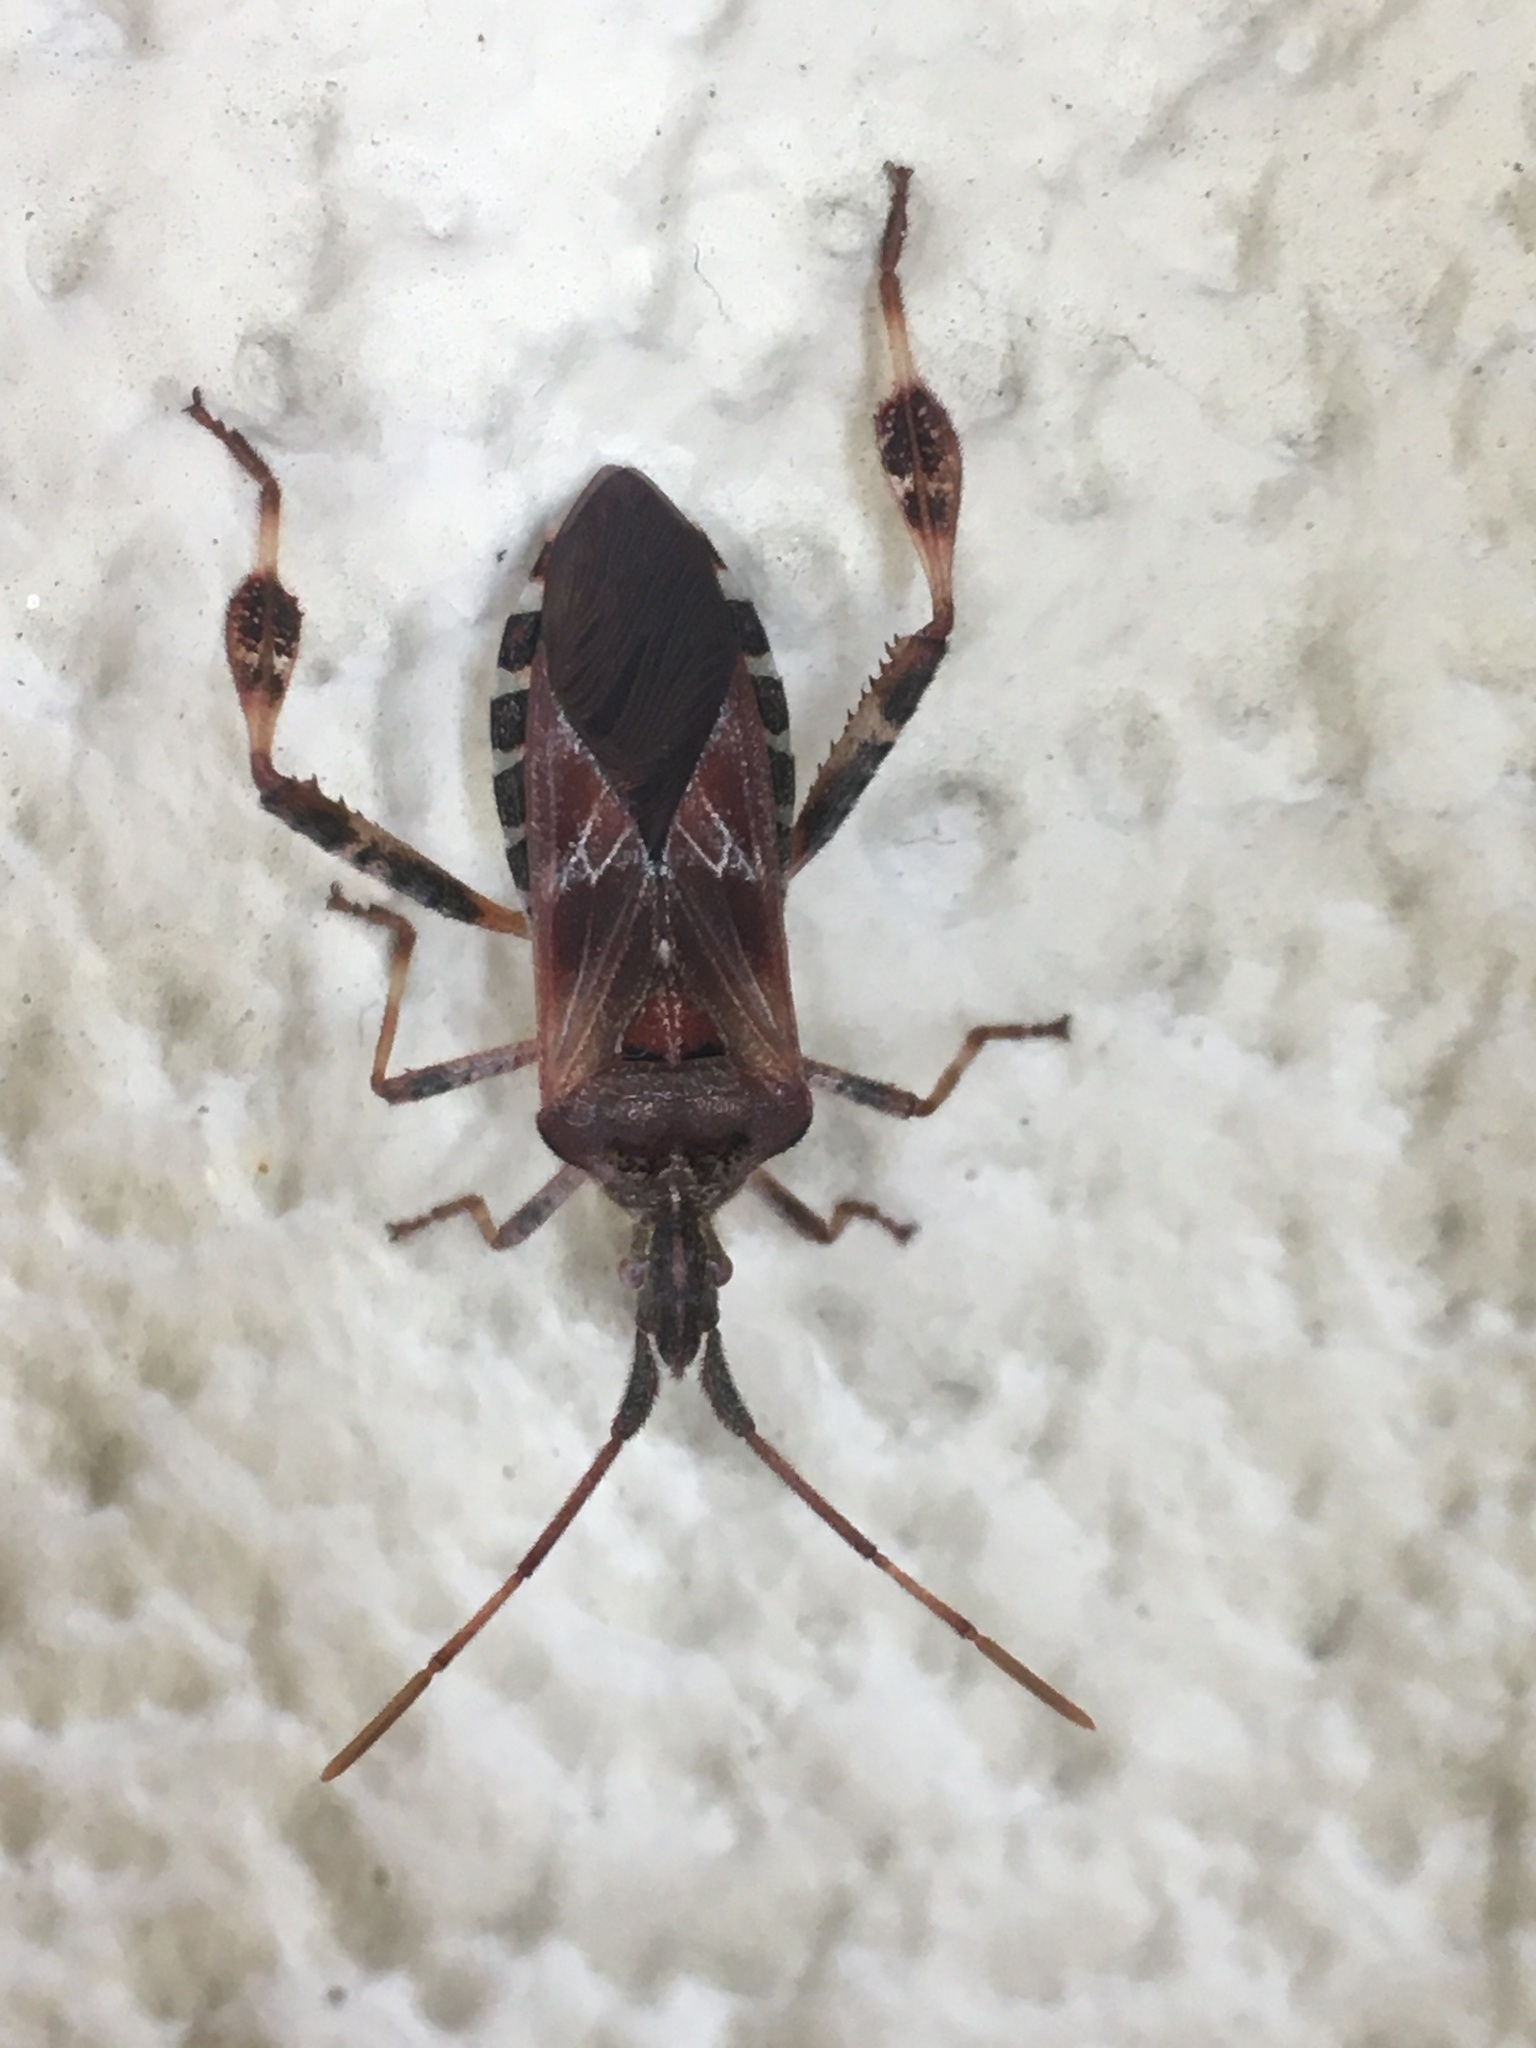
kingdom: Animalia
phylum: Arthropoda
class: Insecta
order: Hemiptera
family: Coreidae
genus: Leptoglossus
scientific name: Leptoglossus occidentalis
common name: Western conifer-seed bug
